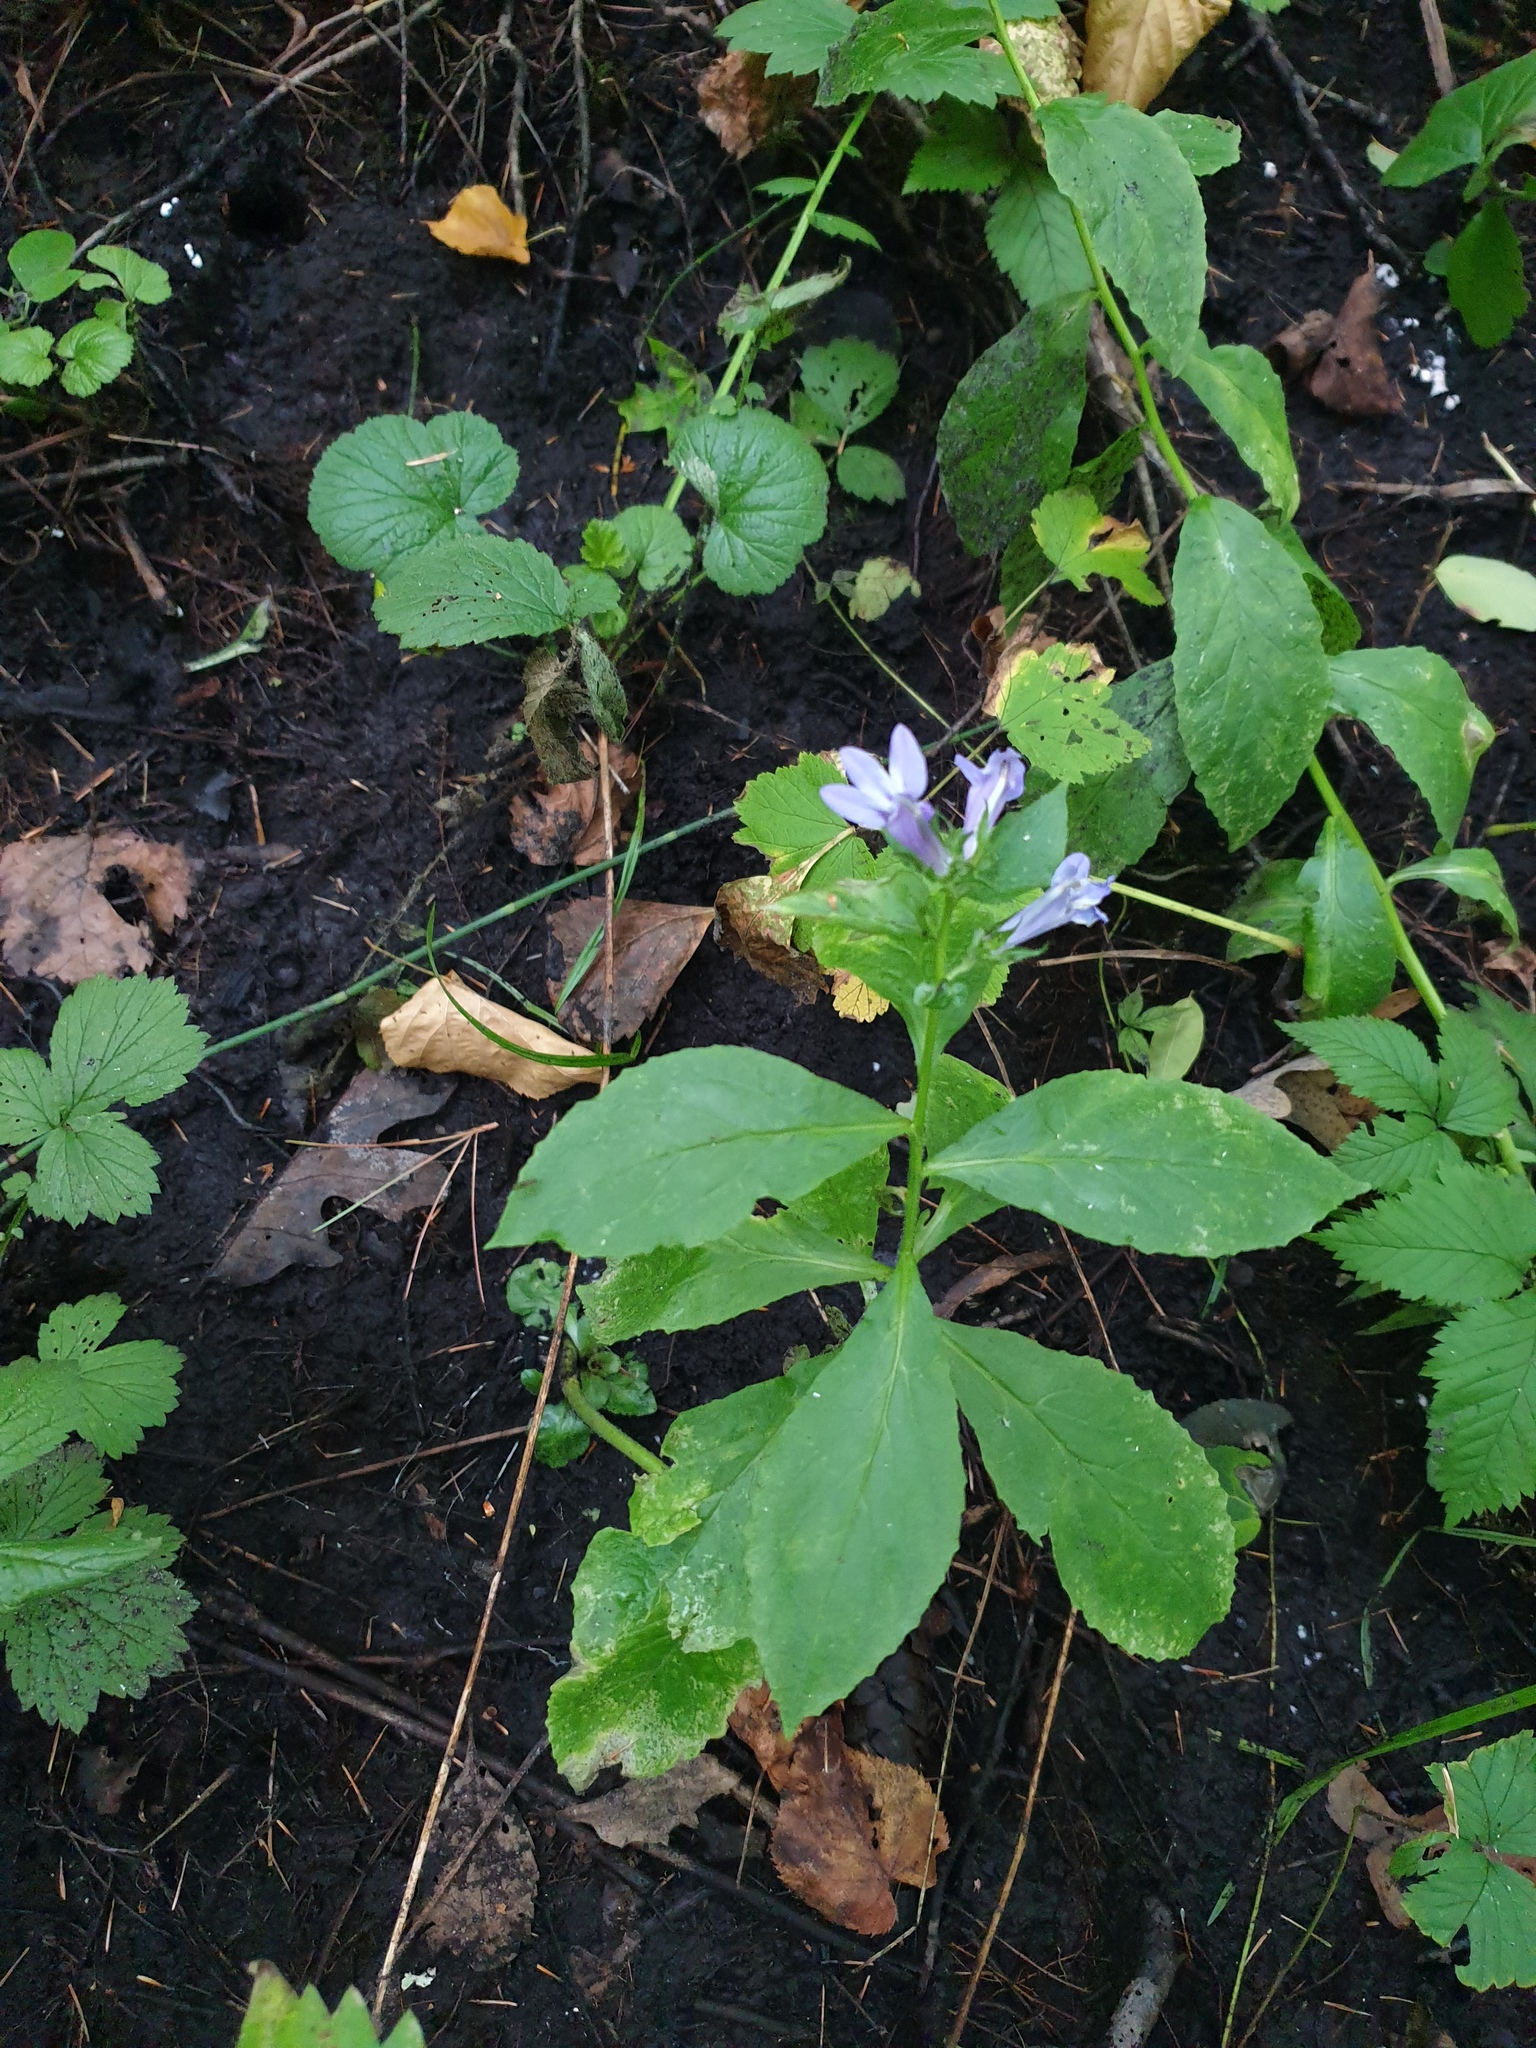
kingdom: Plantae
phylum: Tracheophyta
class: Magnoliopsida
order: Asterales
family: Campanulaceae
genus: Lobelia
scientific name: Lobelia siphilitica
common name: Great lobelia
